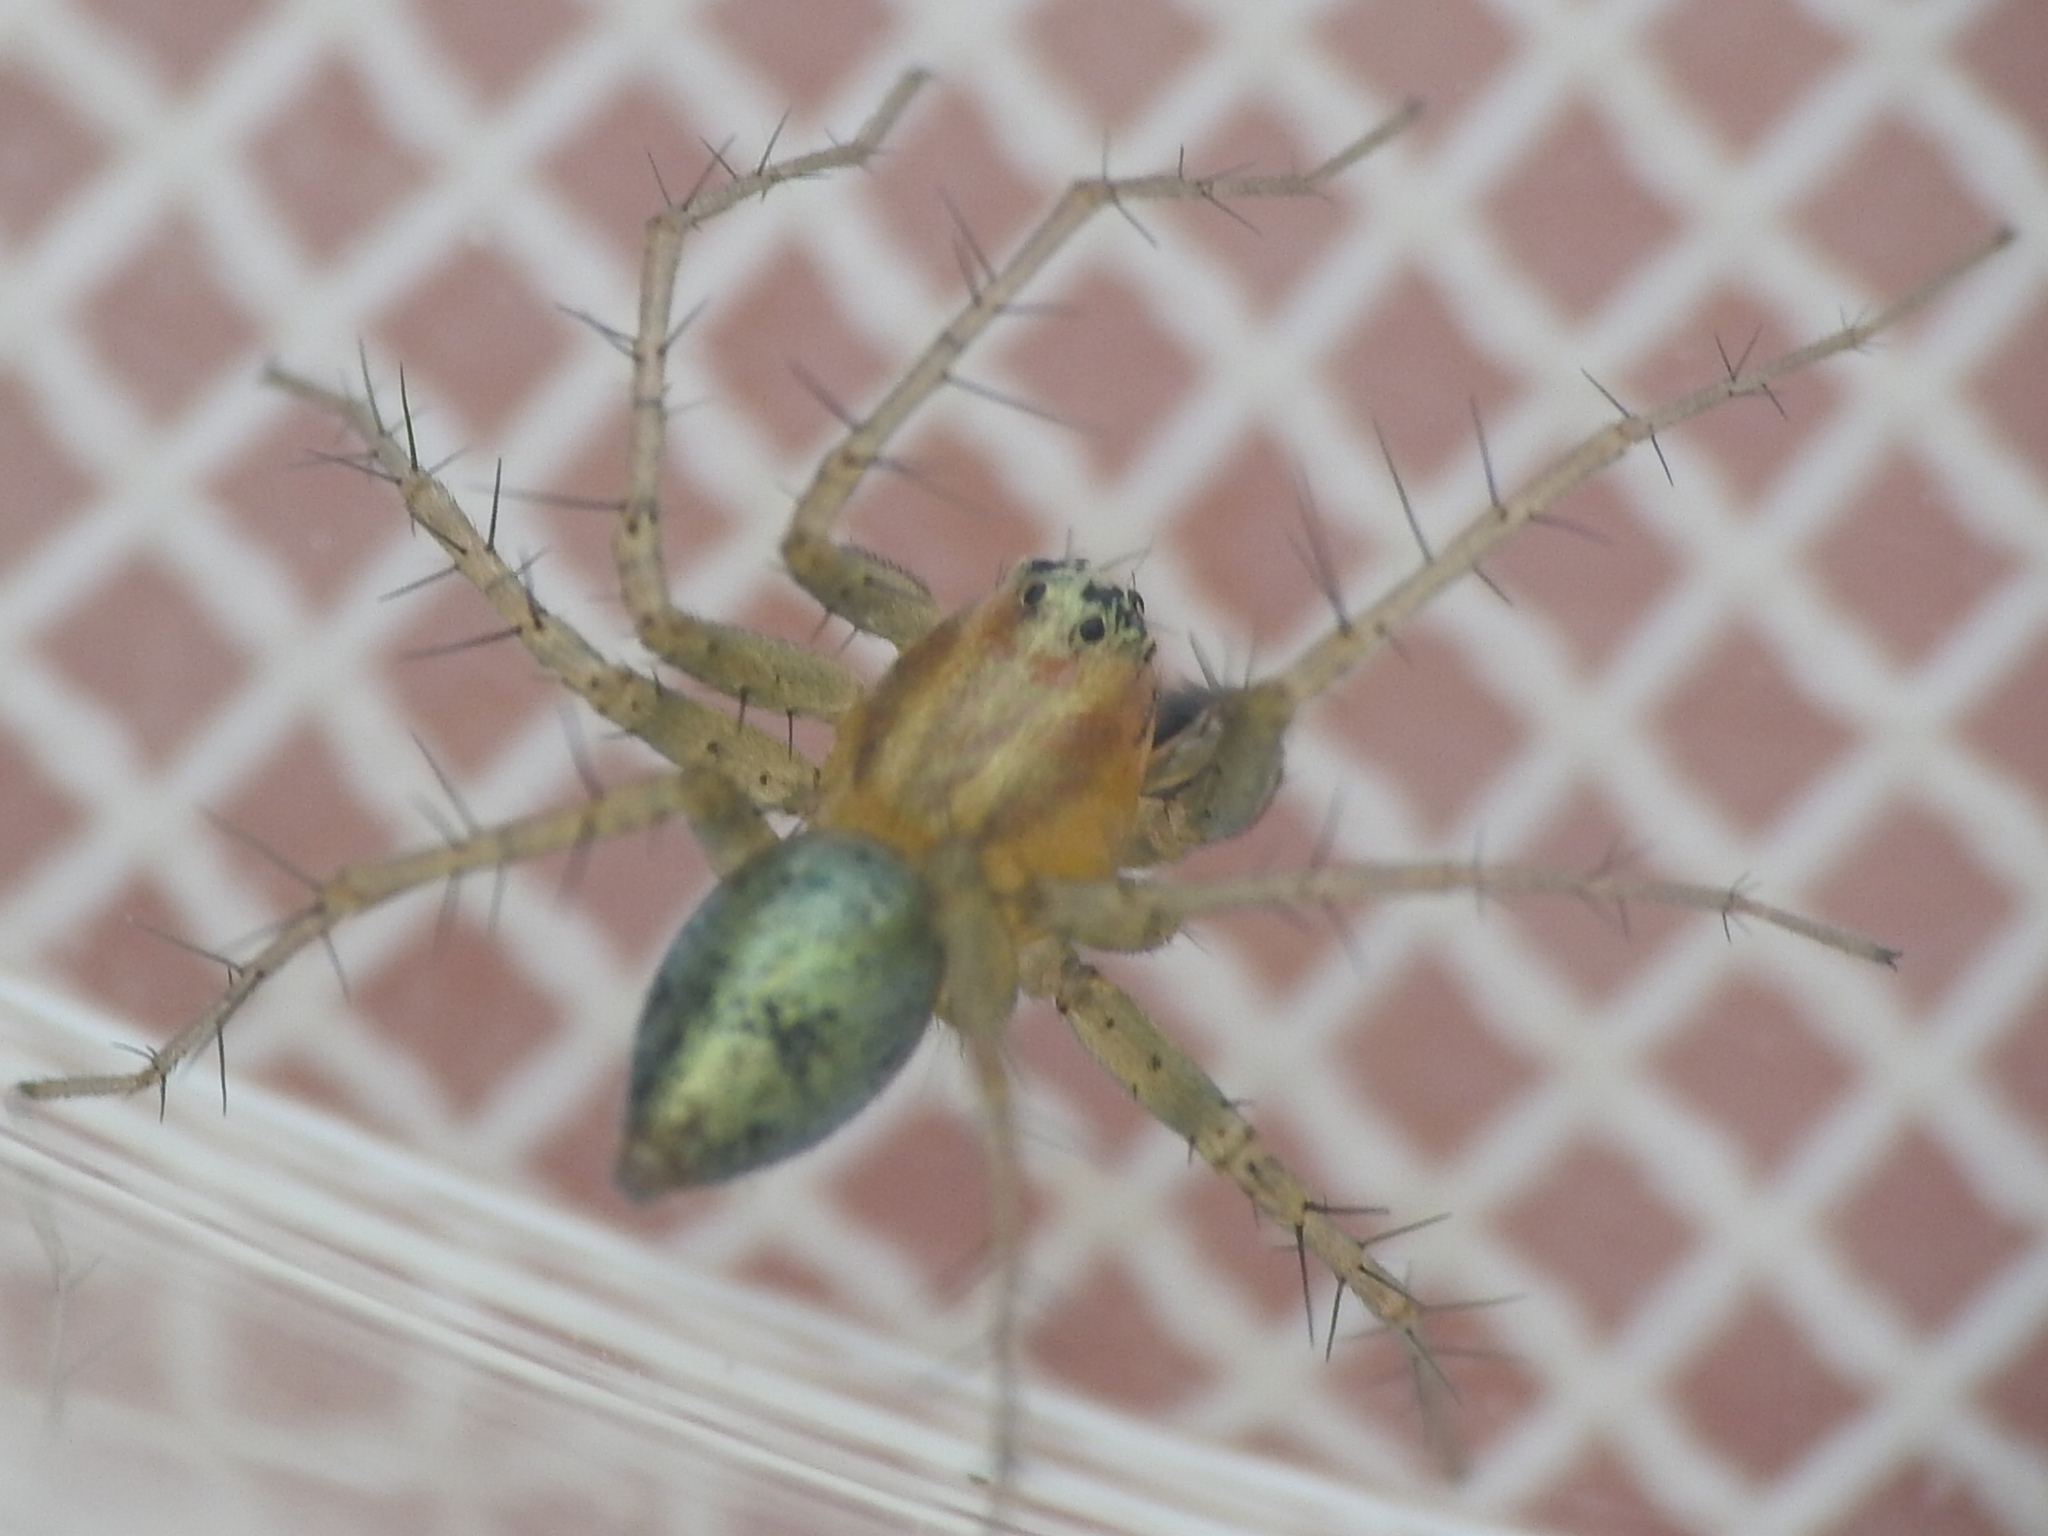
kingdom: Animalia
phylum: Arthropoda
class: Arachnida
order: Araneae
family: Oxyopidae
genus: Oxyopes
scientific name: Oxyopes salticus
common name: Lynx spiders
